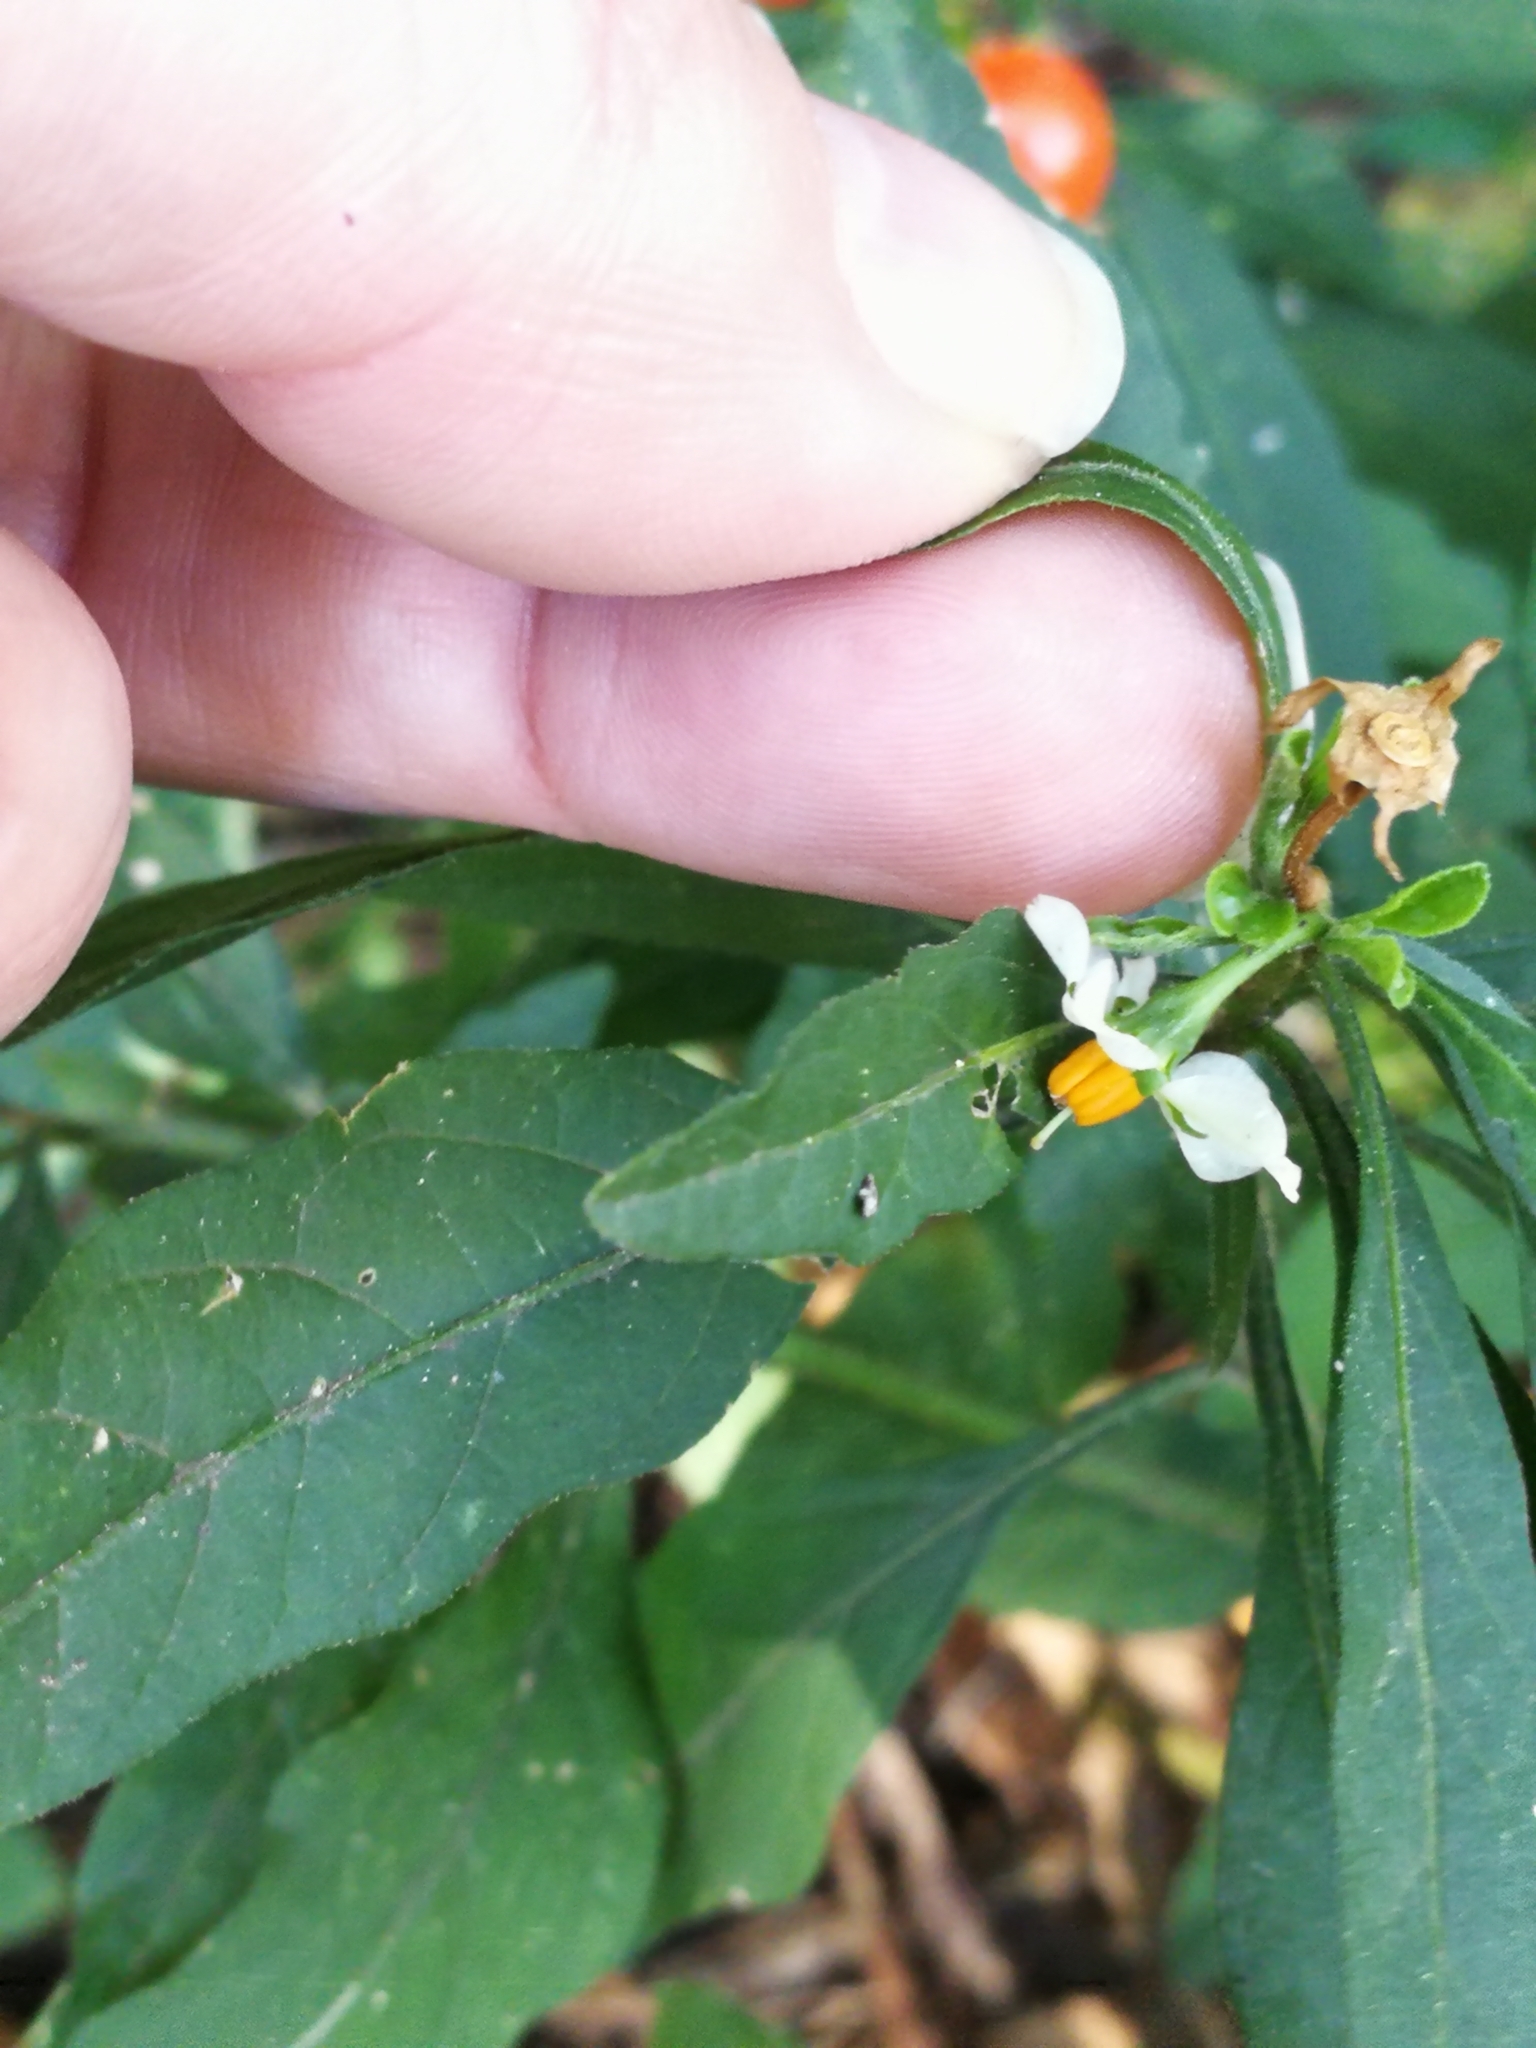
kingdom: Plantae
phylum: Tracheophyta
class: Magnoliopsida
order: Solanales
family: Solanaceae
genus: Solanum
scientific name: Solanum pseudocapsicum
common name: Jerusalem cherry
